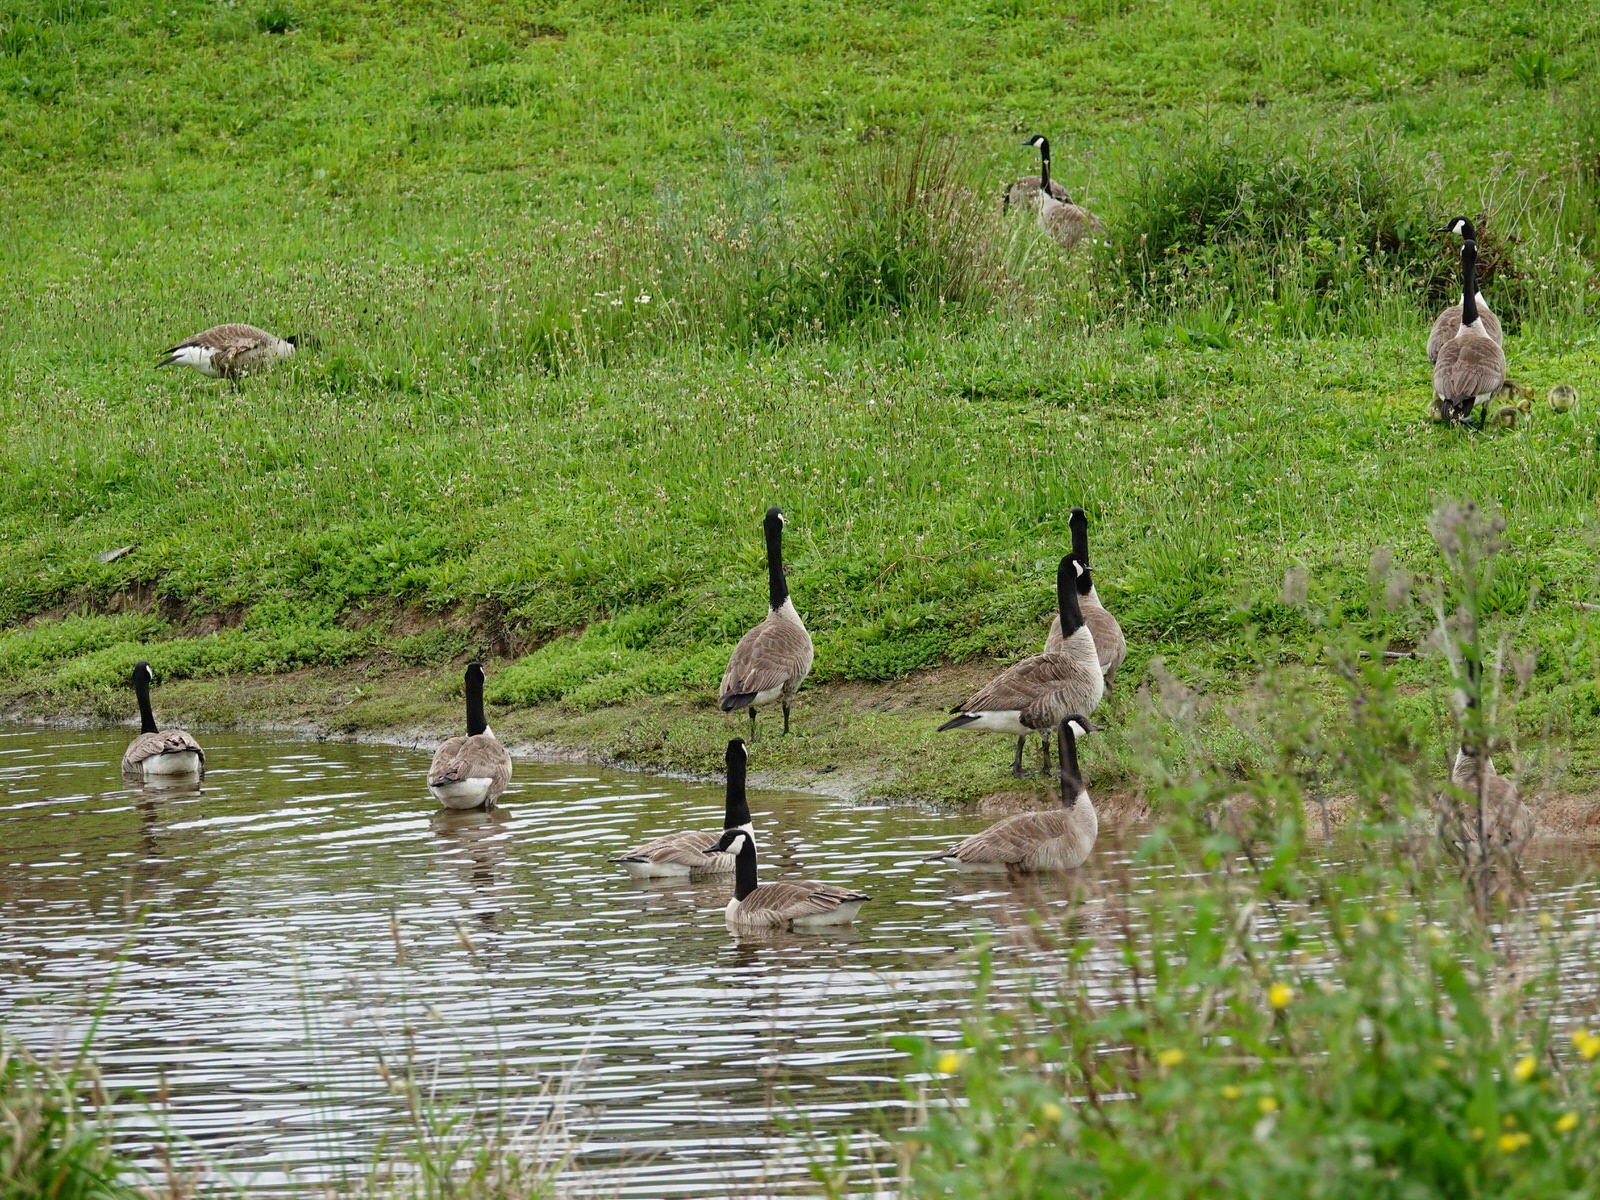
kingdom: Animalia
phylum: Chordata
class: Aves
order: Anseriformes
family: Anatidae
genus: Branta
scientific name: Branta canadensis
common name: Canada goose
